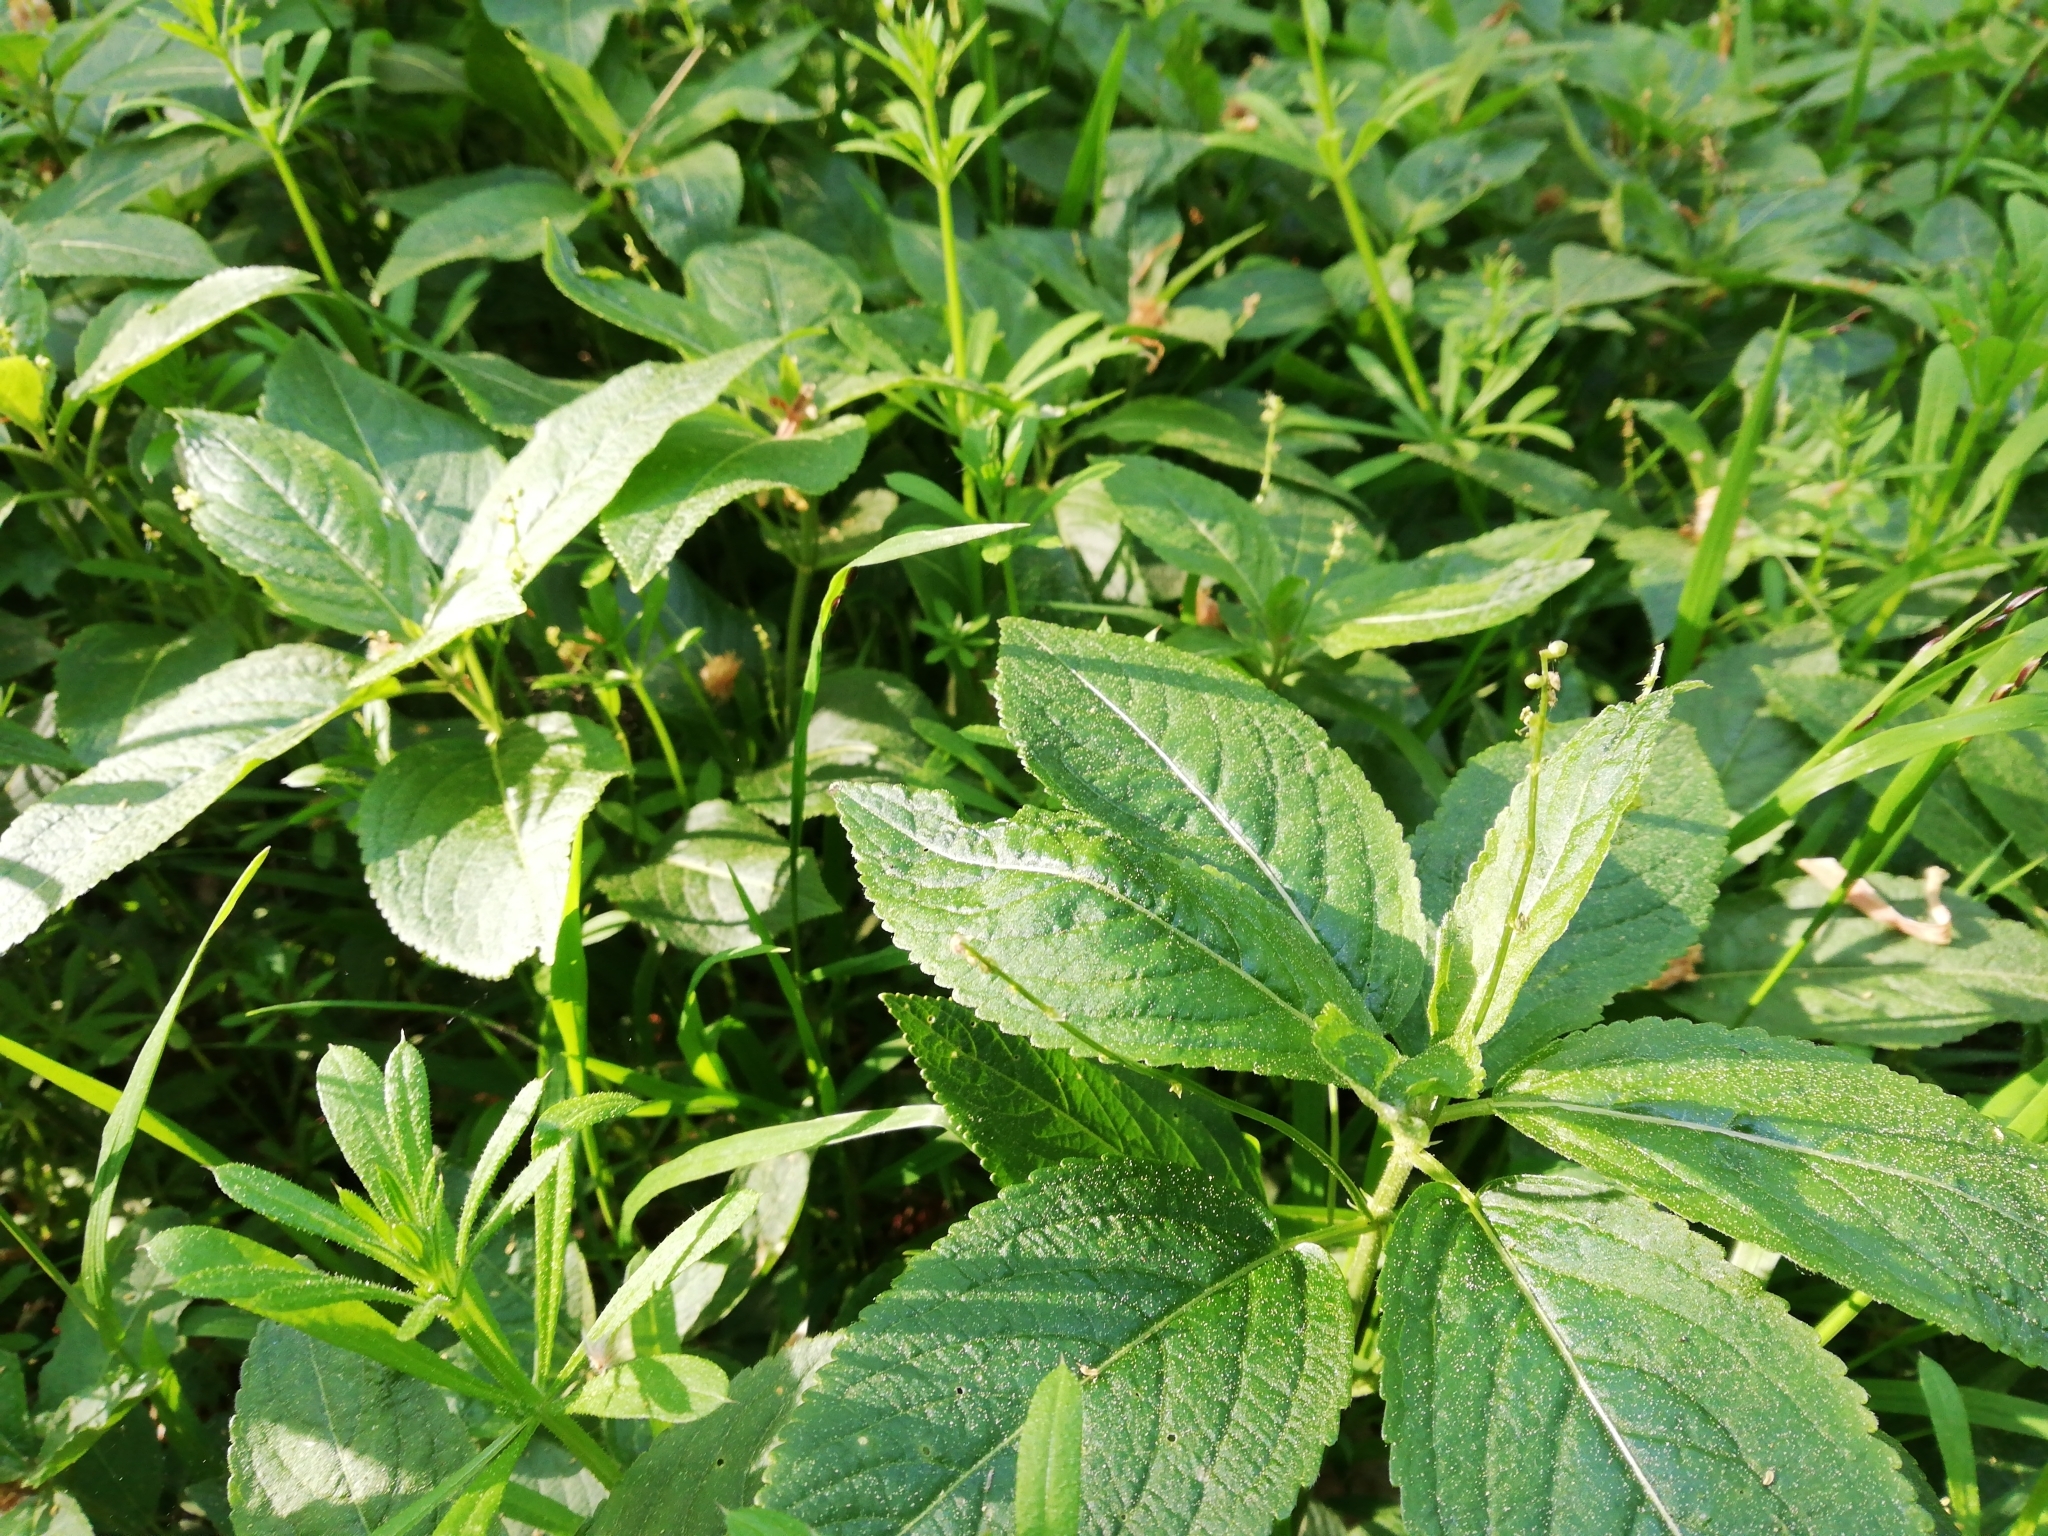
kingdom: Plantae
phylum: Tracheophyta
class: Magnoliopsida
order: Malpighiales
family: Euphorbiaceae
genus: Mercurialis
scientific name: Mercurialis perennis
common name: Dog mercury
